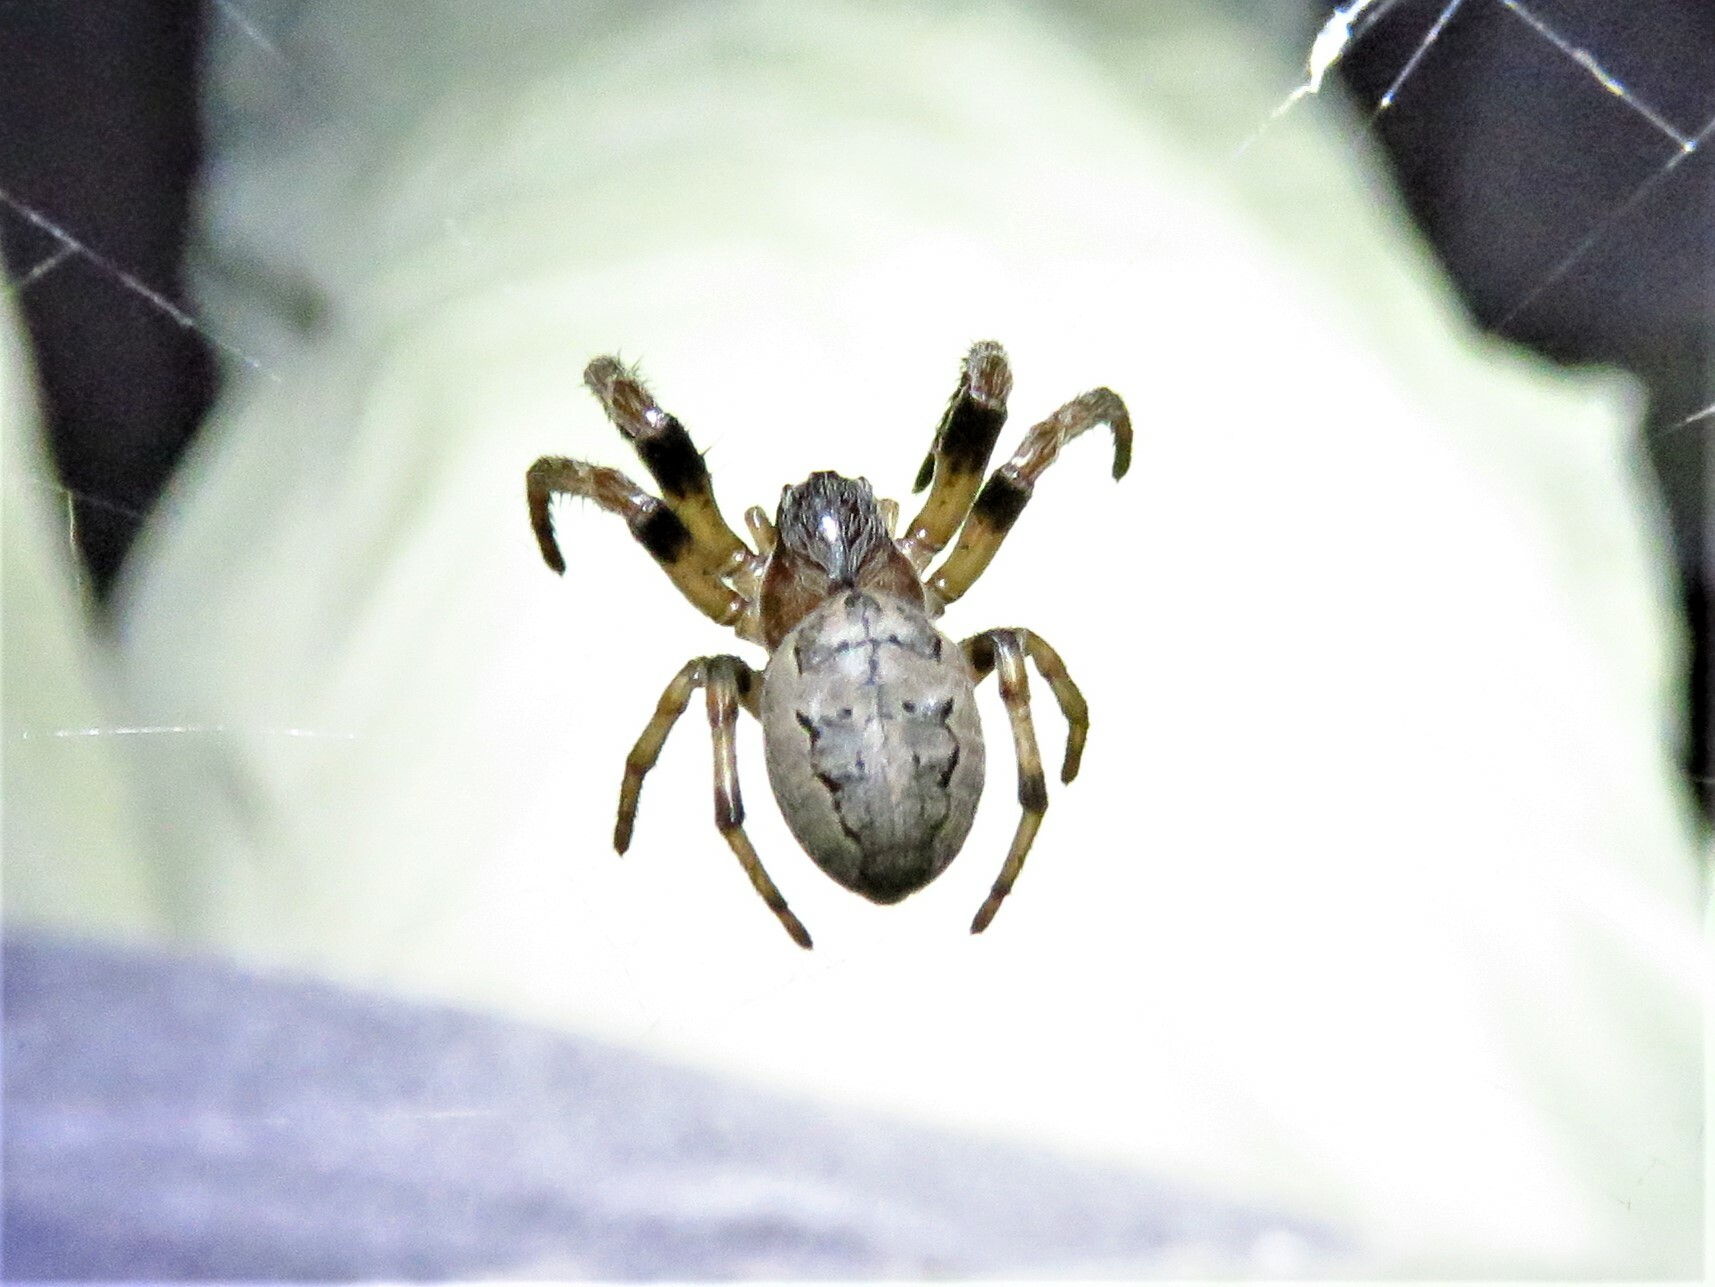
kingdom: Animalia
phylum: Arthropoda
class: Arachnida
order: Araneae
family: Araneidae
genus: Larinioides
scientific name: Larinioides cornutus
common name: Furrow orbweaver
